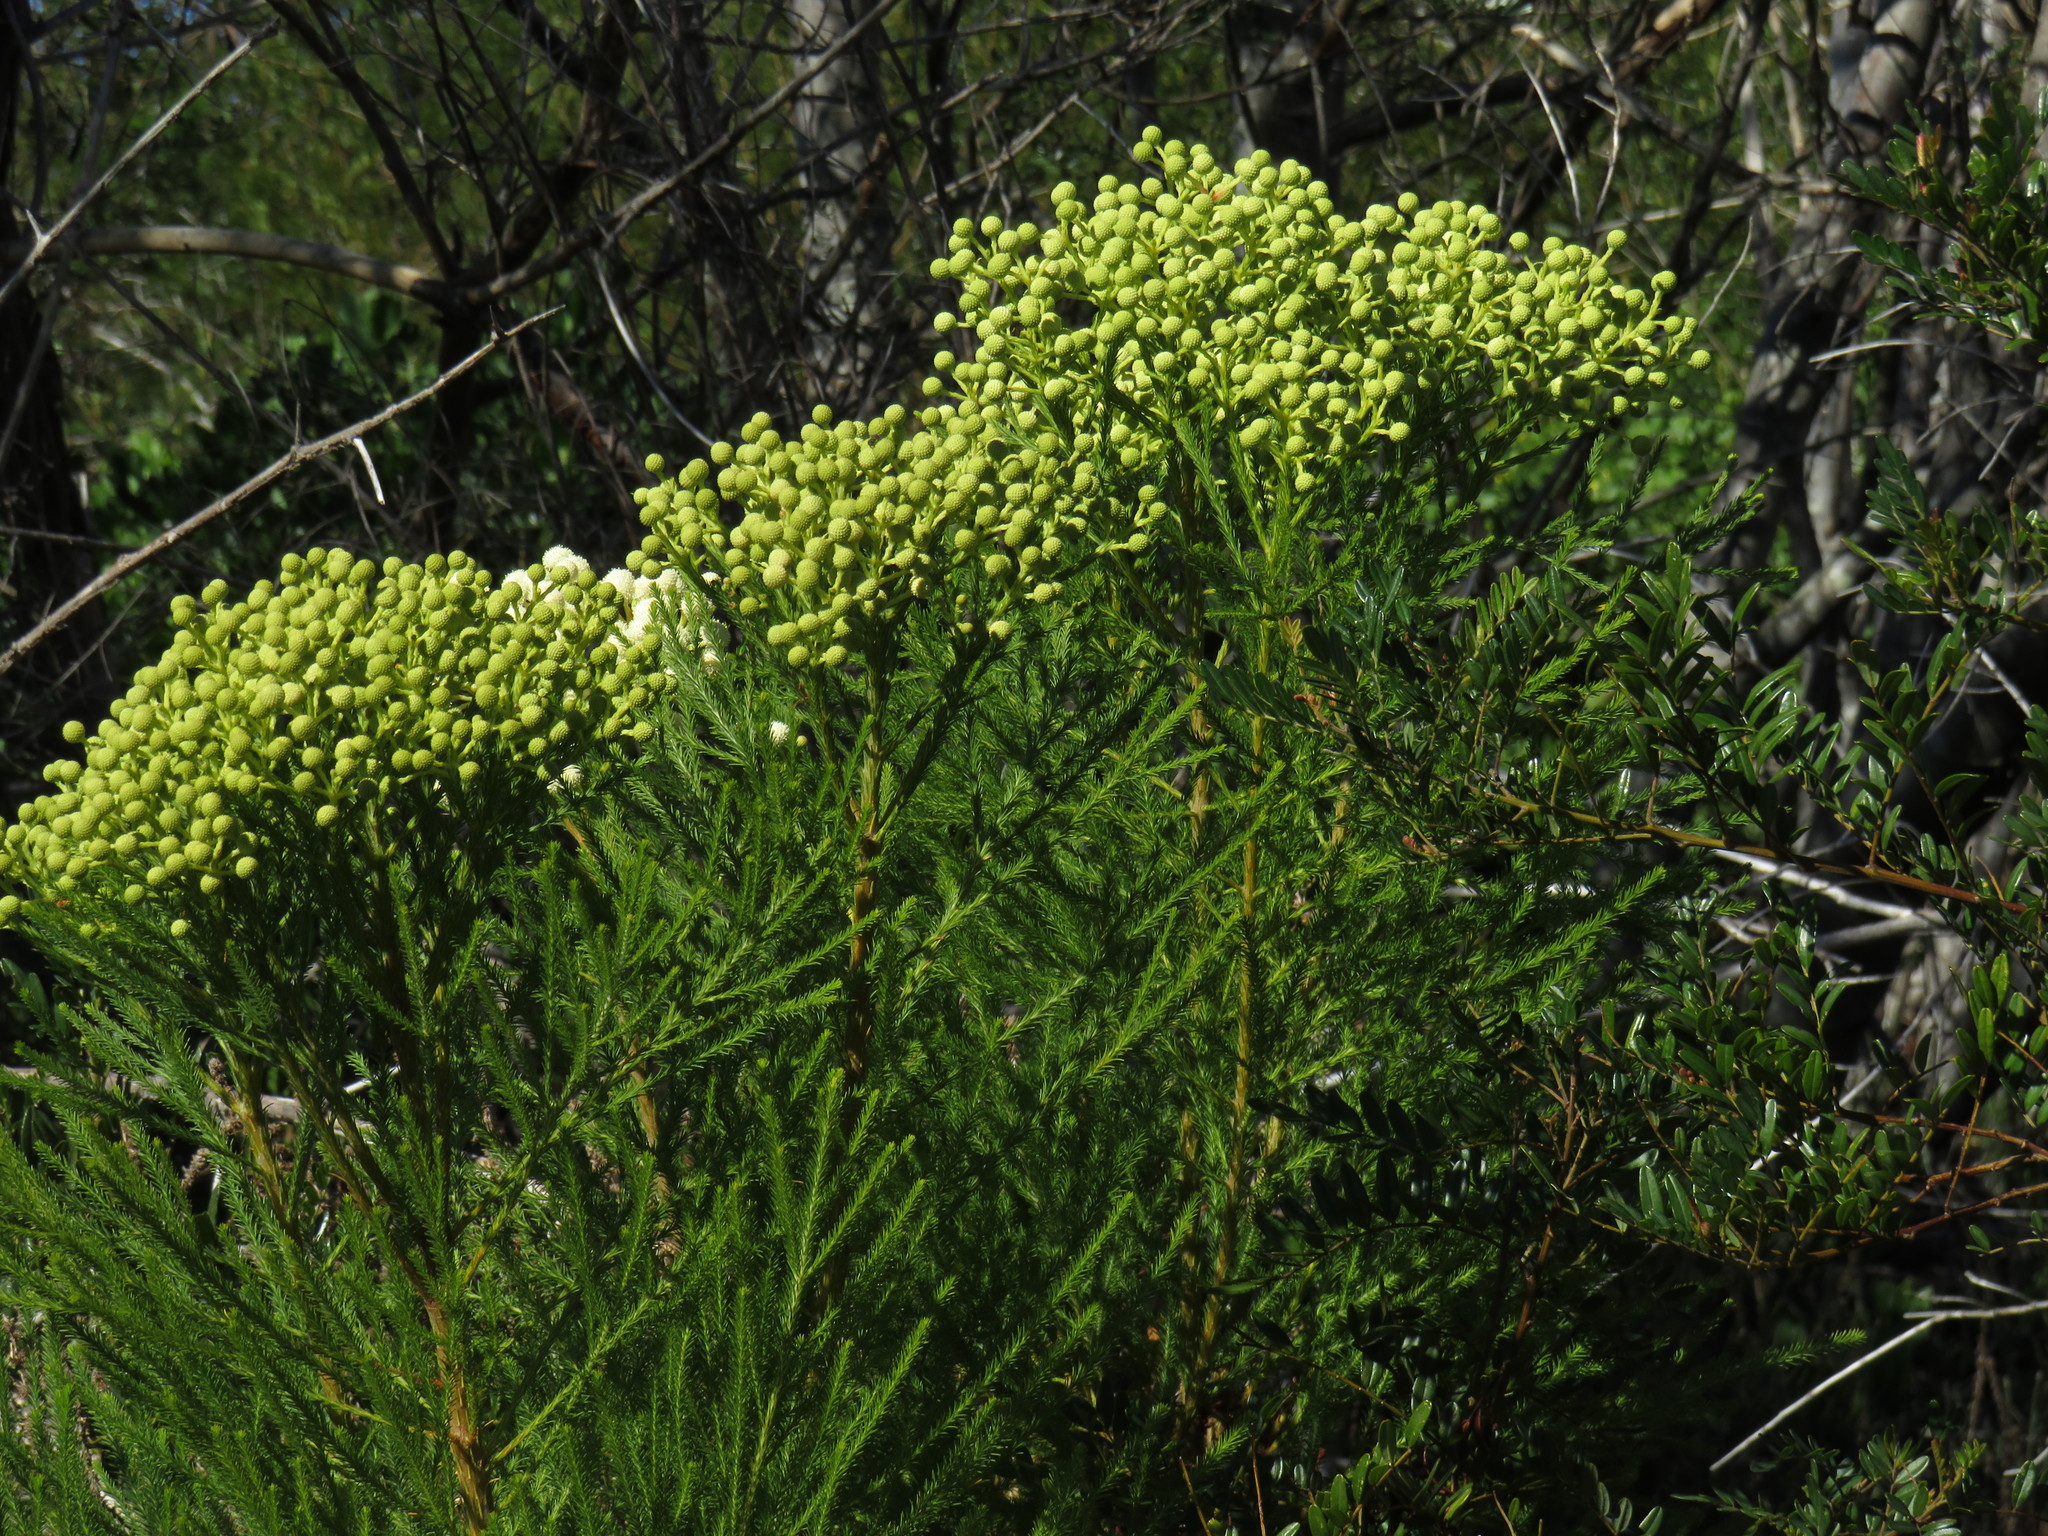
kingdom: Plantae
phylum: Tracheophyta
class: Magnoliopsida
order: Bruniales
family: Bruniaceae
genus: Berzelia
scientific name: Berzelia lanuginosa
